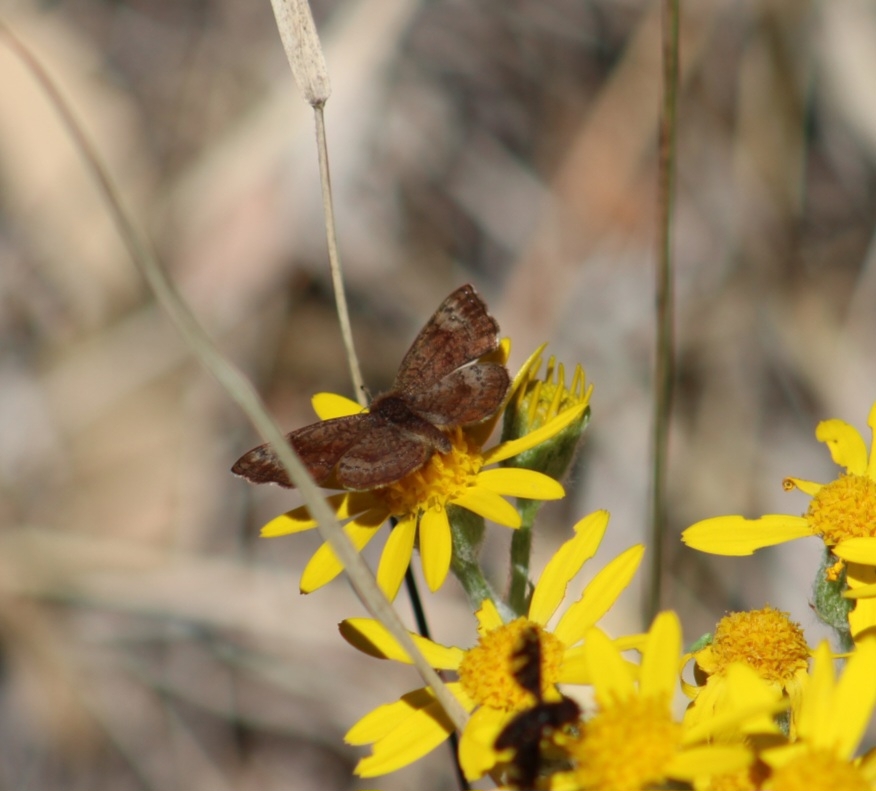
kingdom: Animalia
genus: Calephelis
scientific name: Calephelis arizonensis
